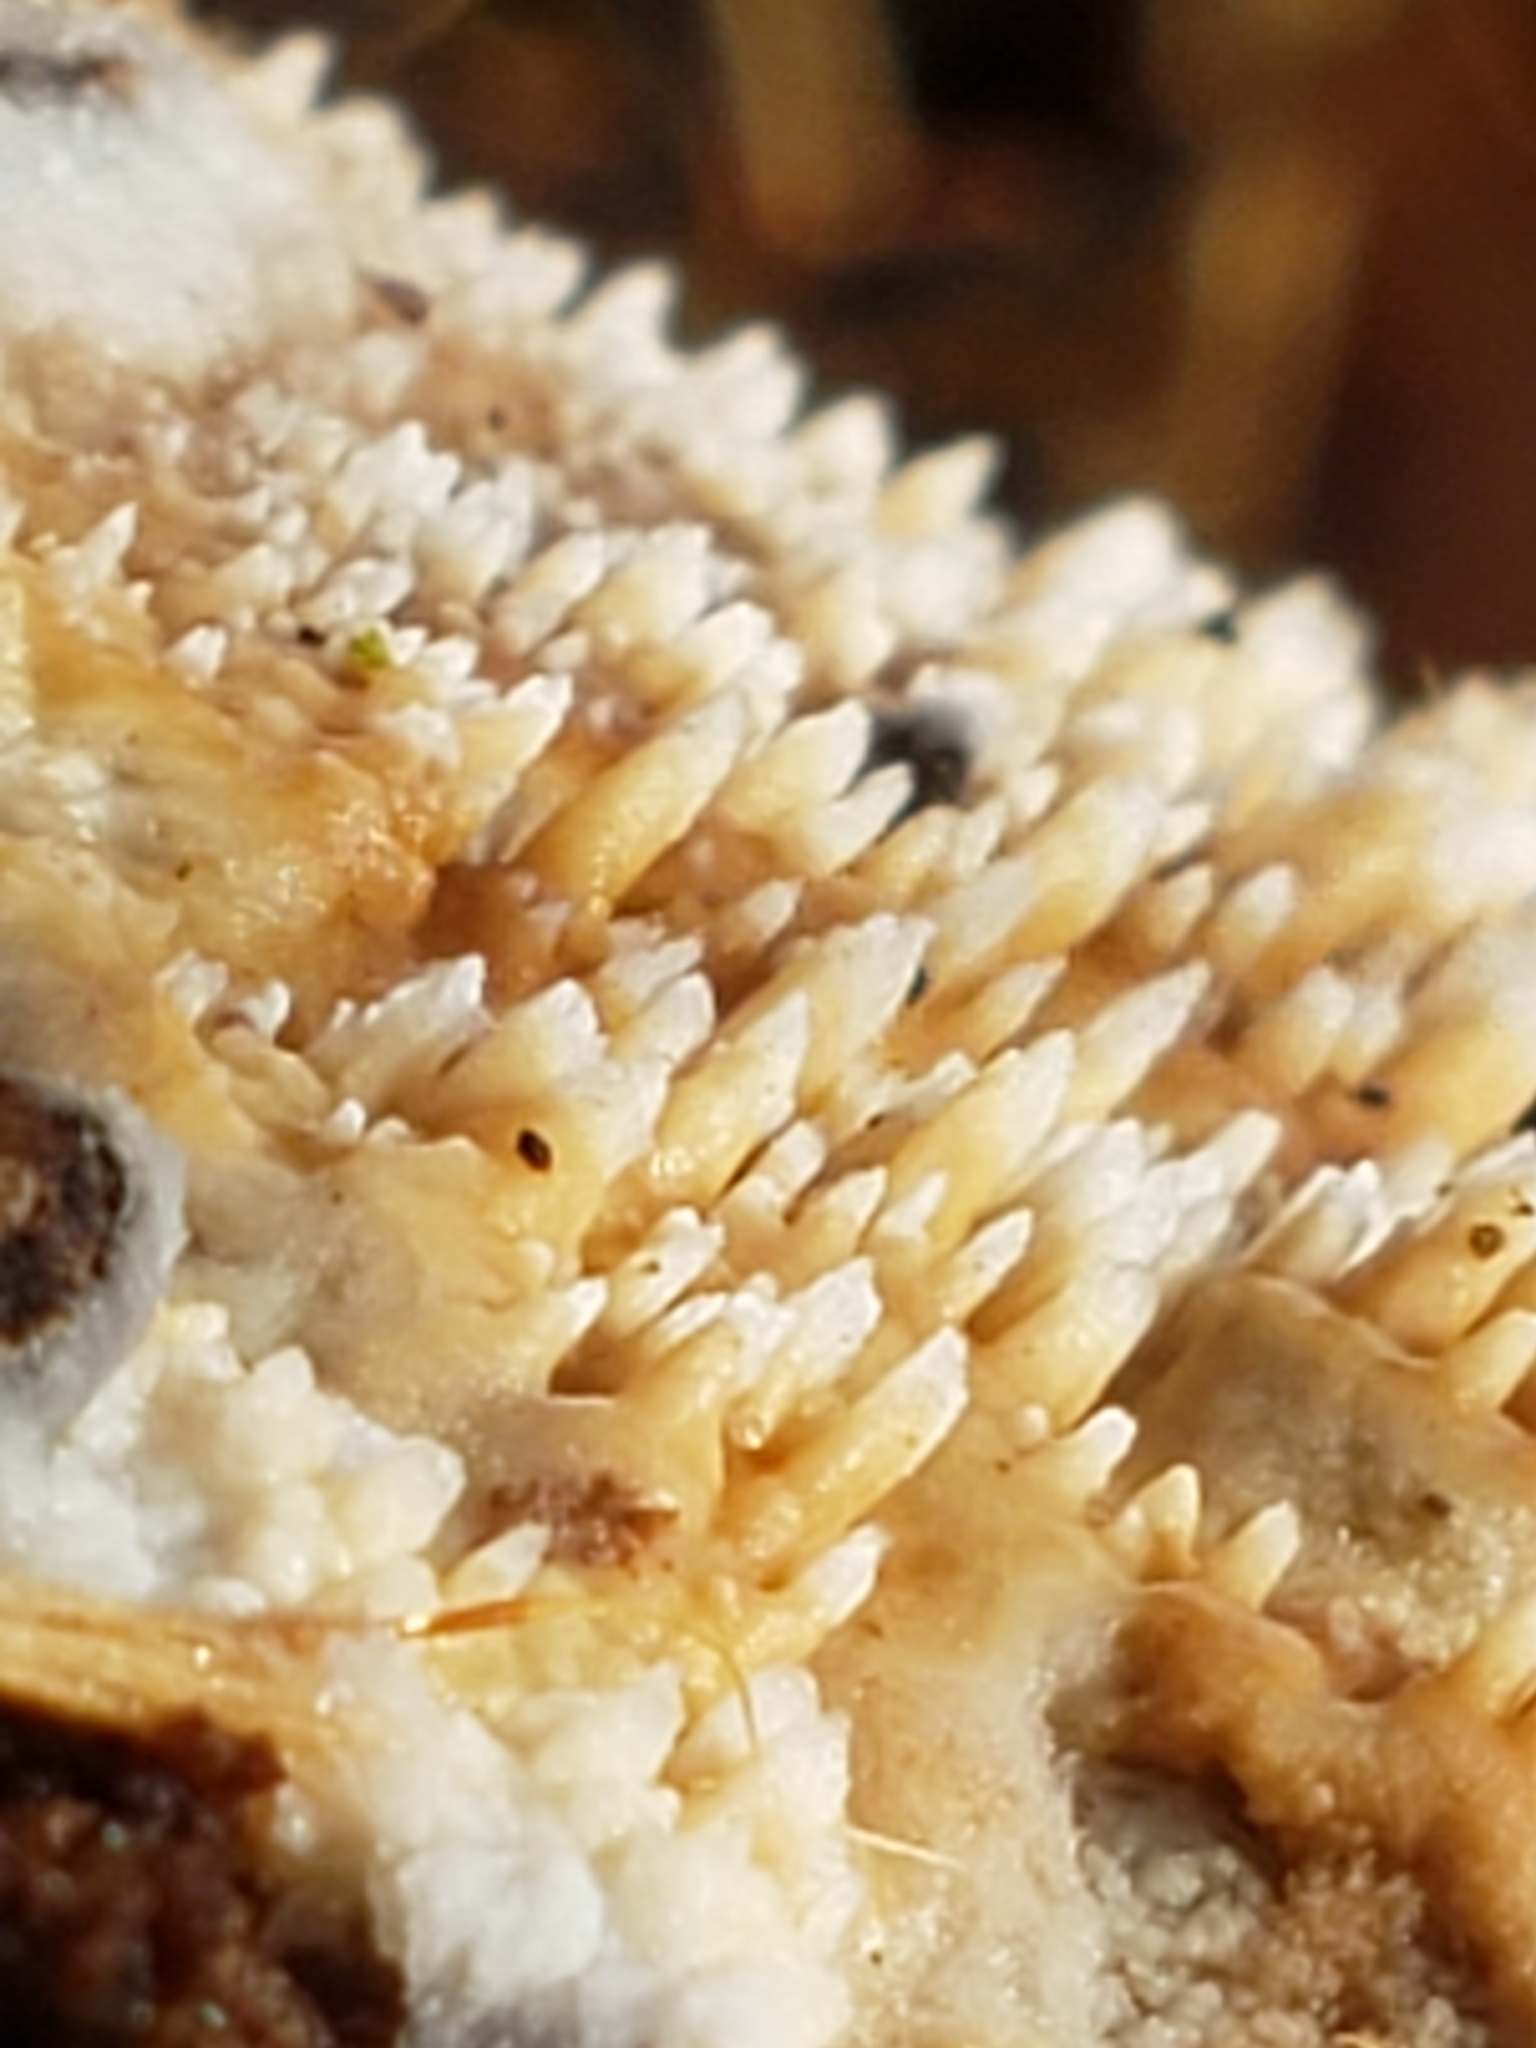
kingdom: Fungi
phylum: Basidiomycota
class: Agaricomycetes
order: Agaricales
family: Radulomycetaceae
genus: Radulomyces
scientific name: Radulomyces copelandii
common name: Asian beauty
